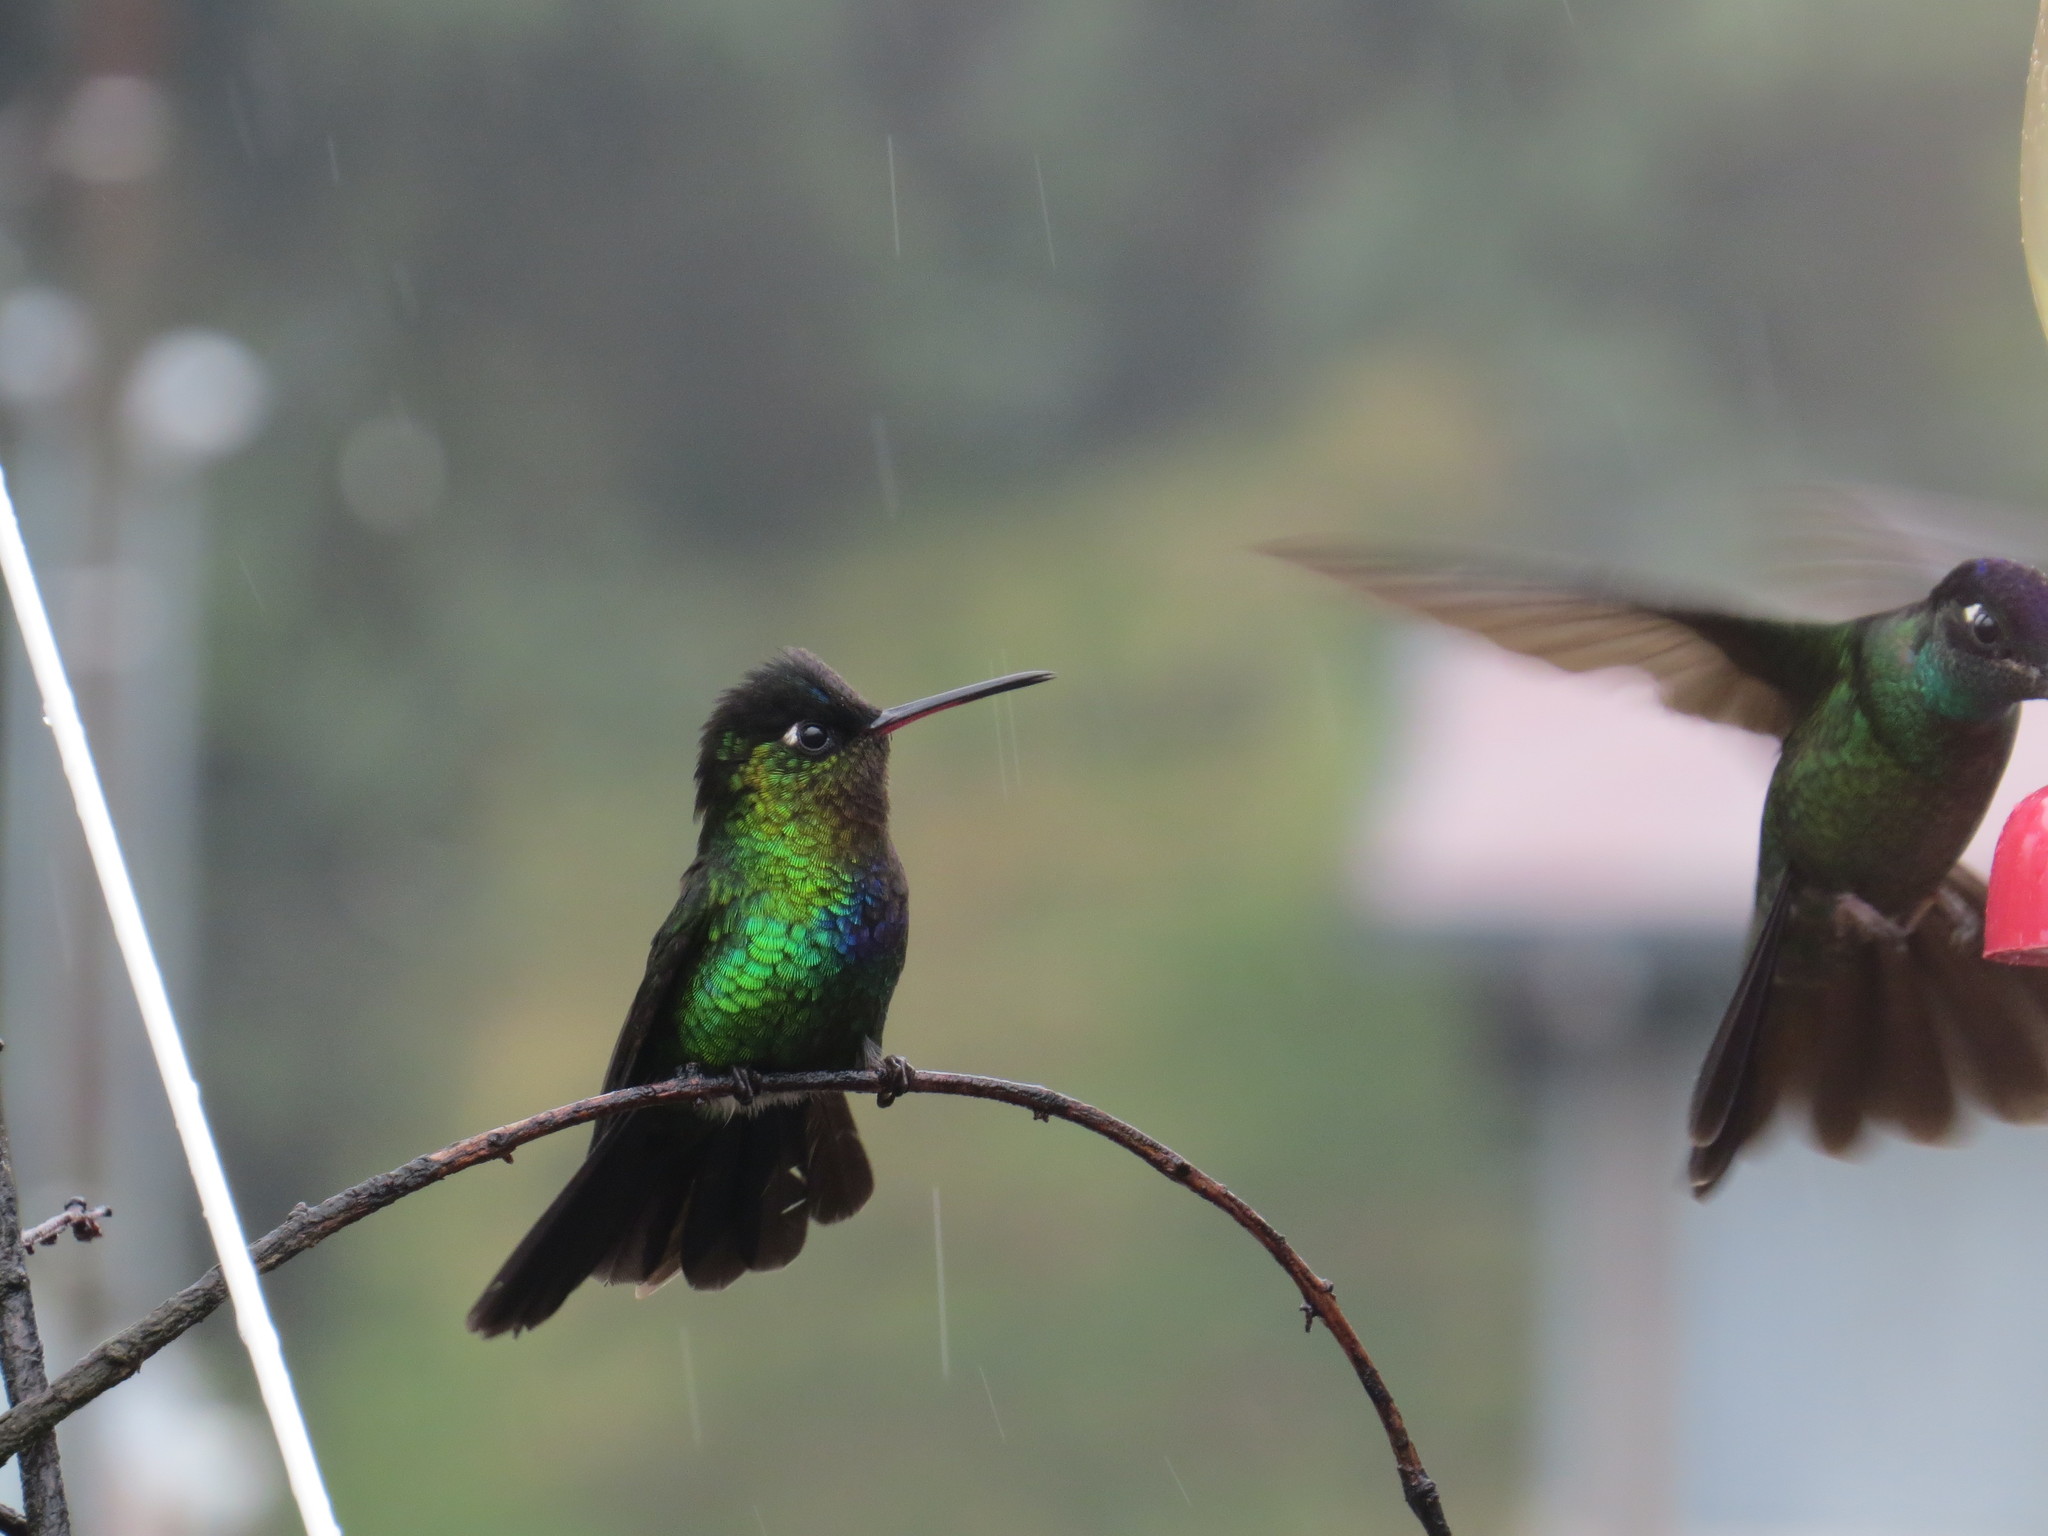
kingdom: Animalia
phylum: Chordata
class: Aves
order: Apodiformes
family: Trochilidae
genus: Panterpe
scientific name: Panterpe insignis
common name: Fiery-throated hummingbird
